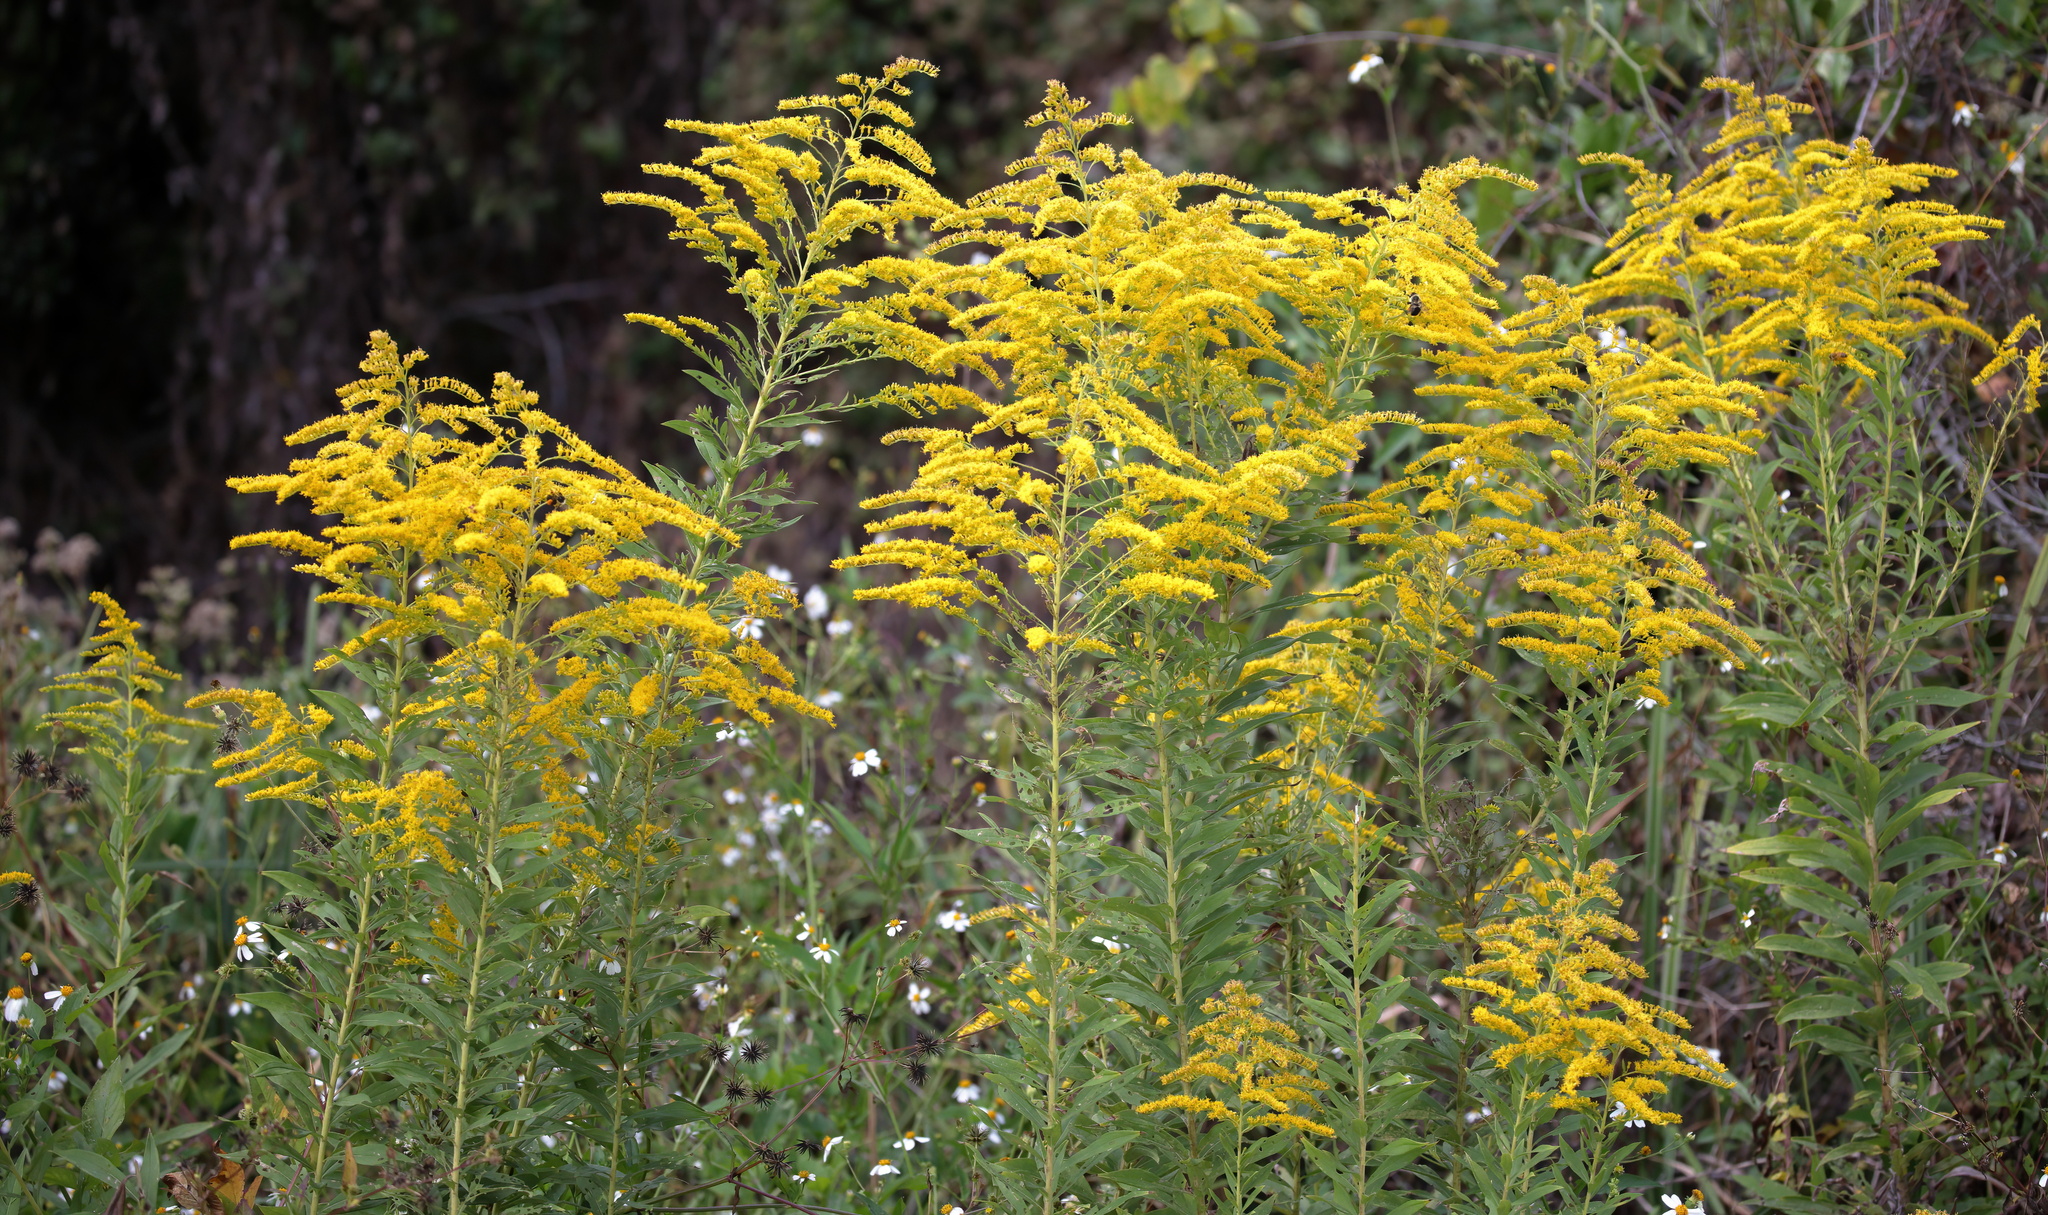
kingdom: Plantae
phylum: Tracheophyta
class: Magnoliopsida
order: Asterales
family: Asteraceae
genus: Solidago
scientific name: Solidago altissima
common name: Late goldenrod
